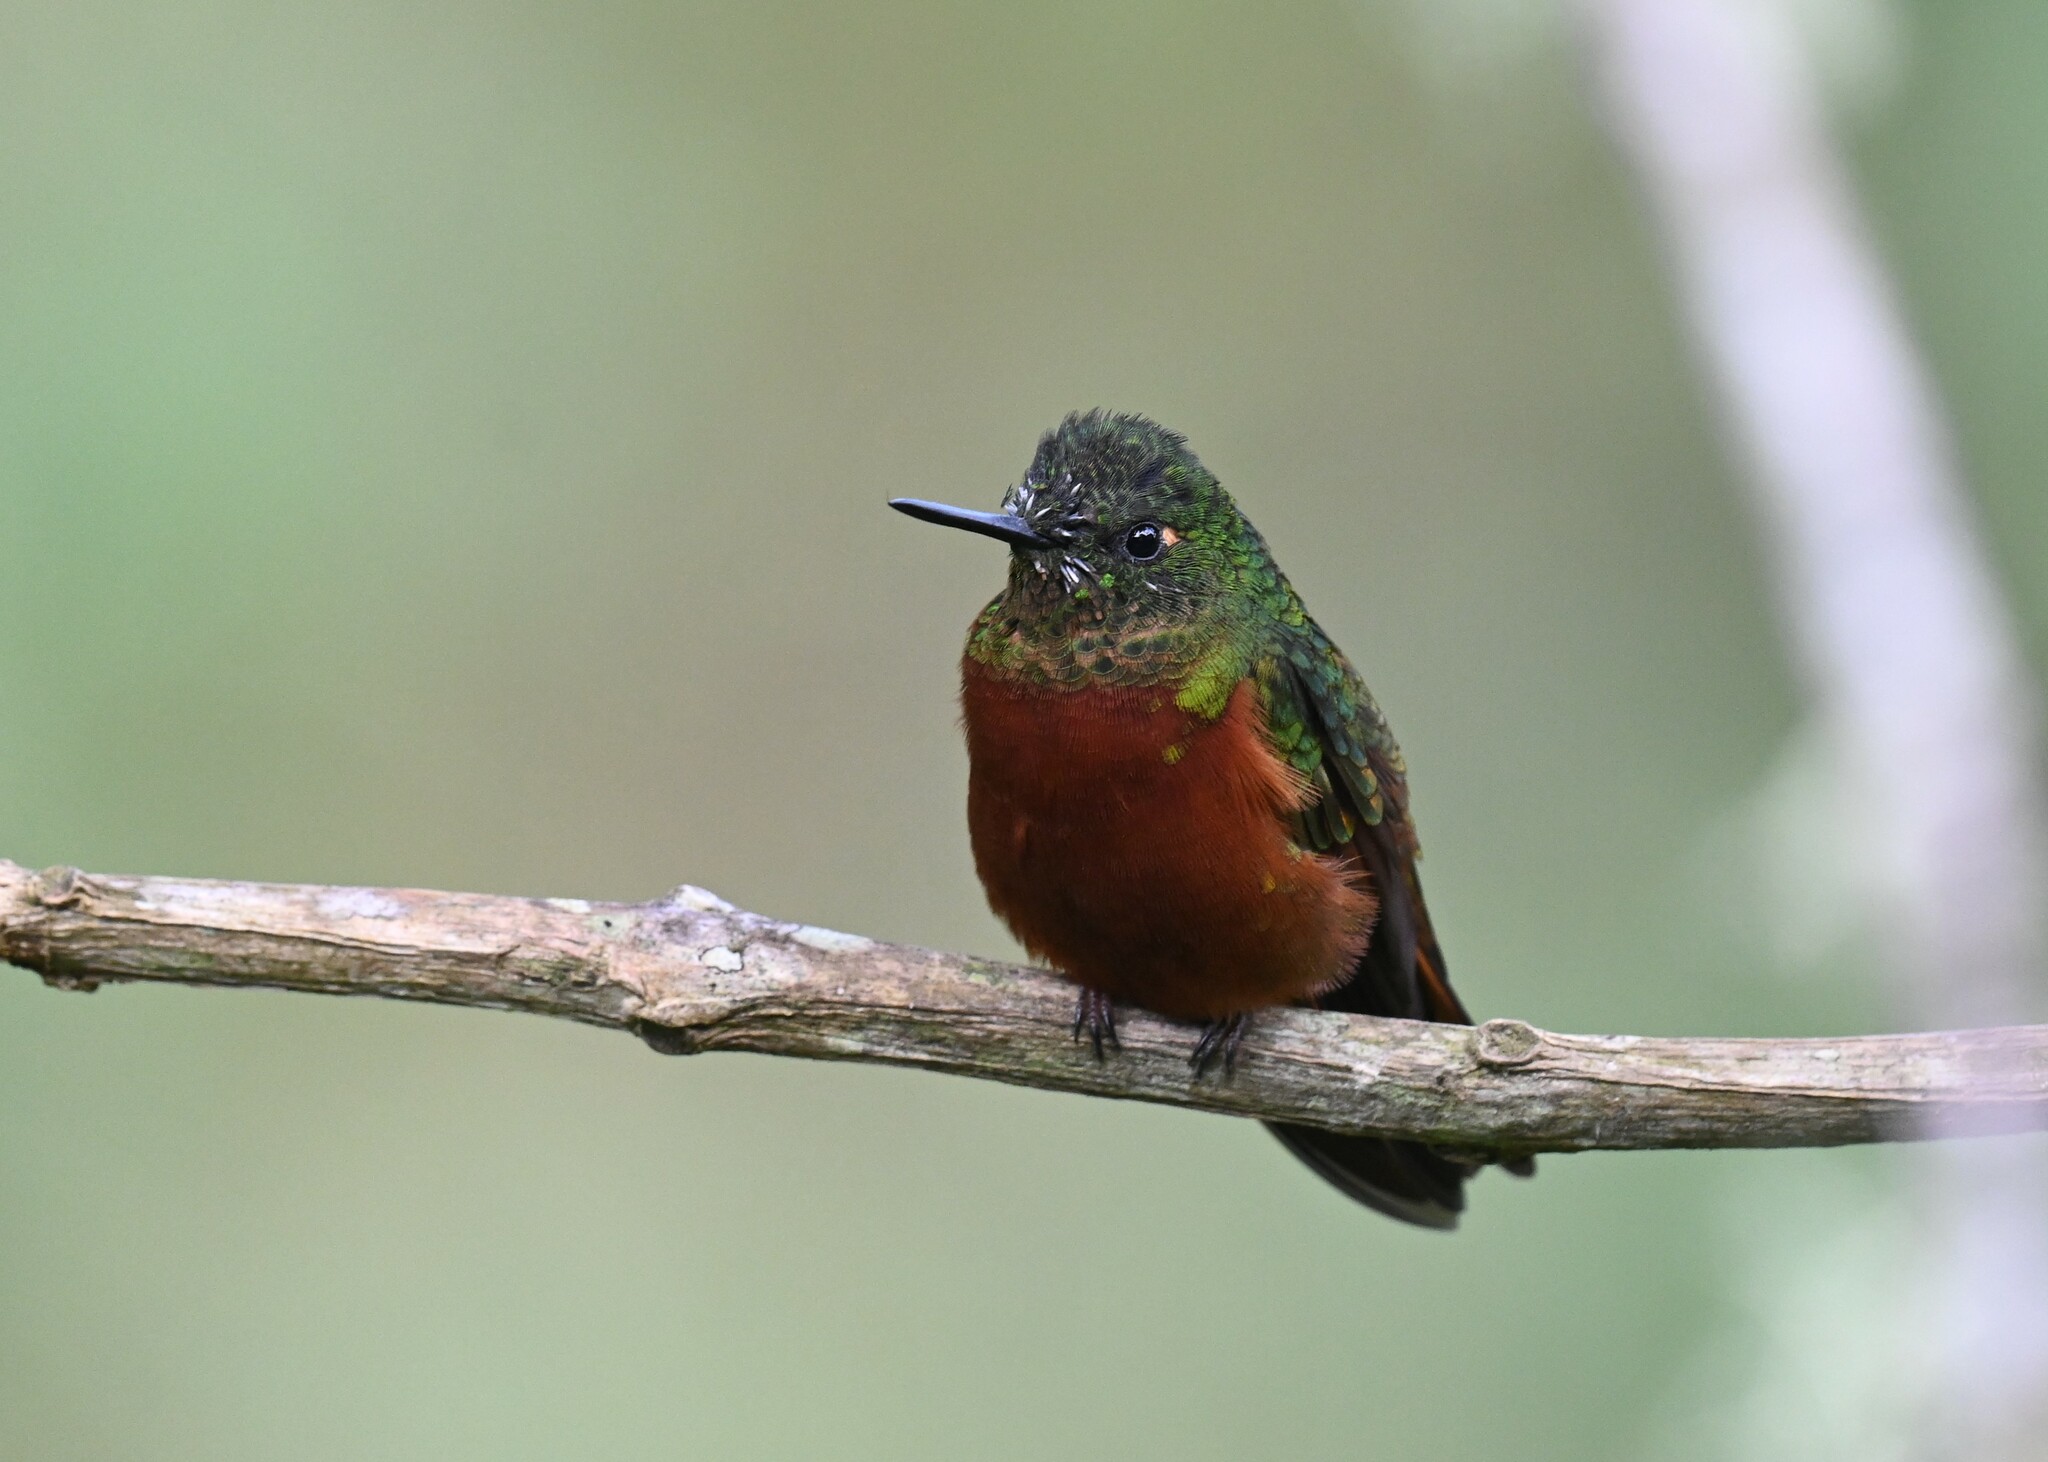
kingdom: Animalia
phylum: Chordata
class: Aves
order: Apodiformes
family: Trochilidae
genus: Boissonneaua
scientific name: Boissonneaua matthewsii
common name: Chestnut-breasted coronet
